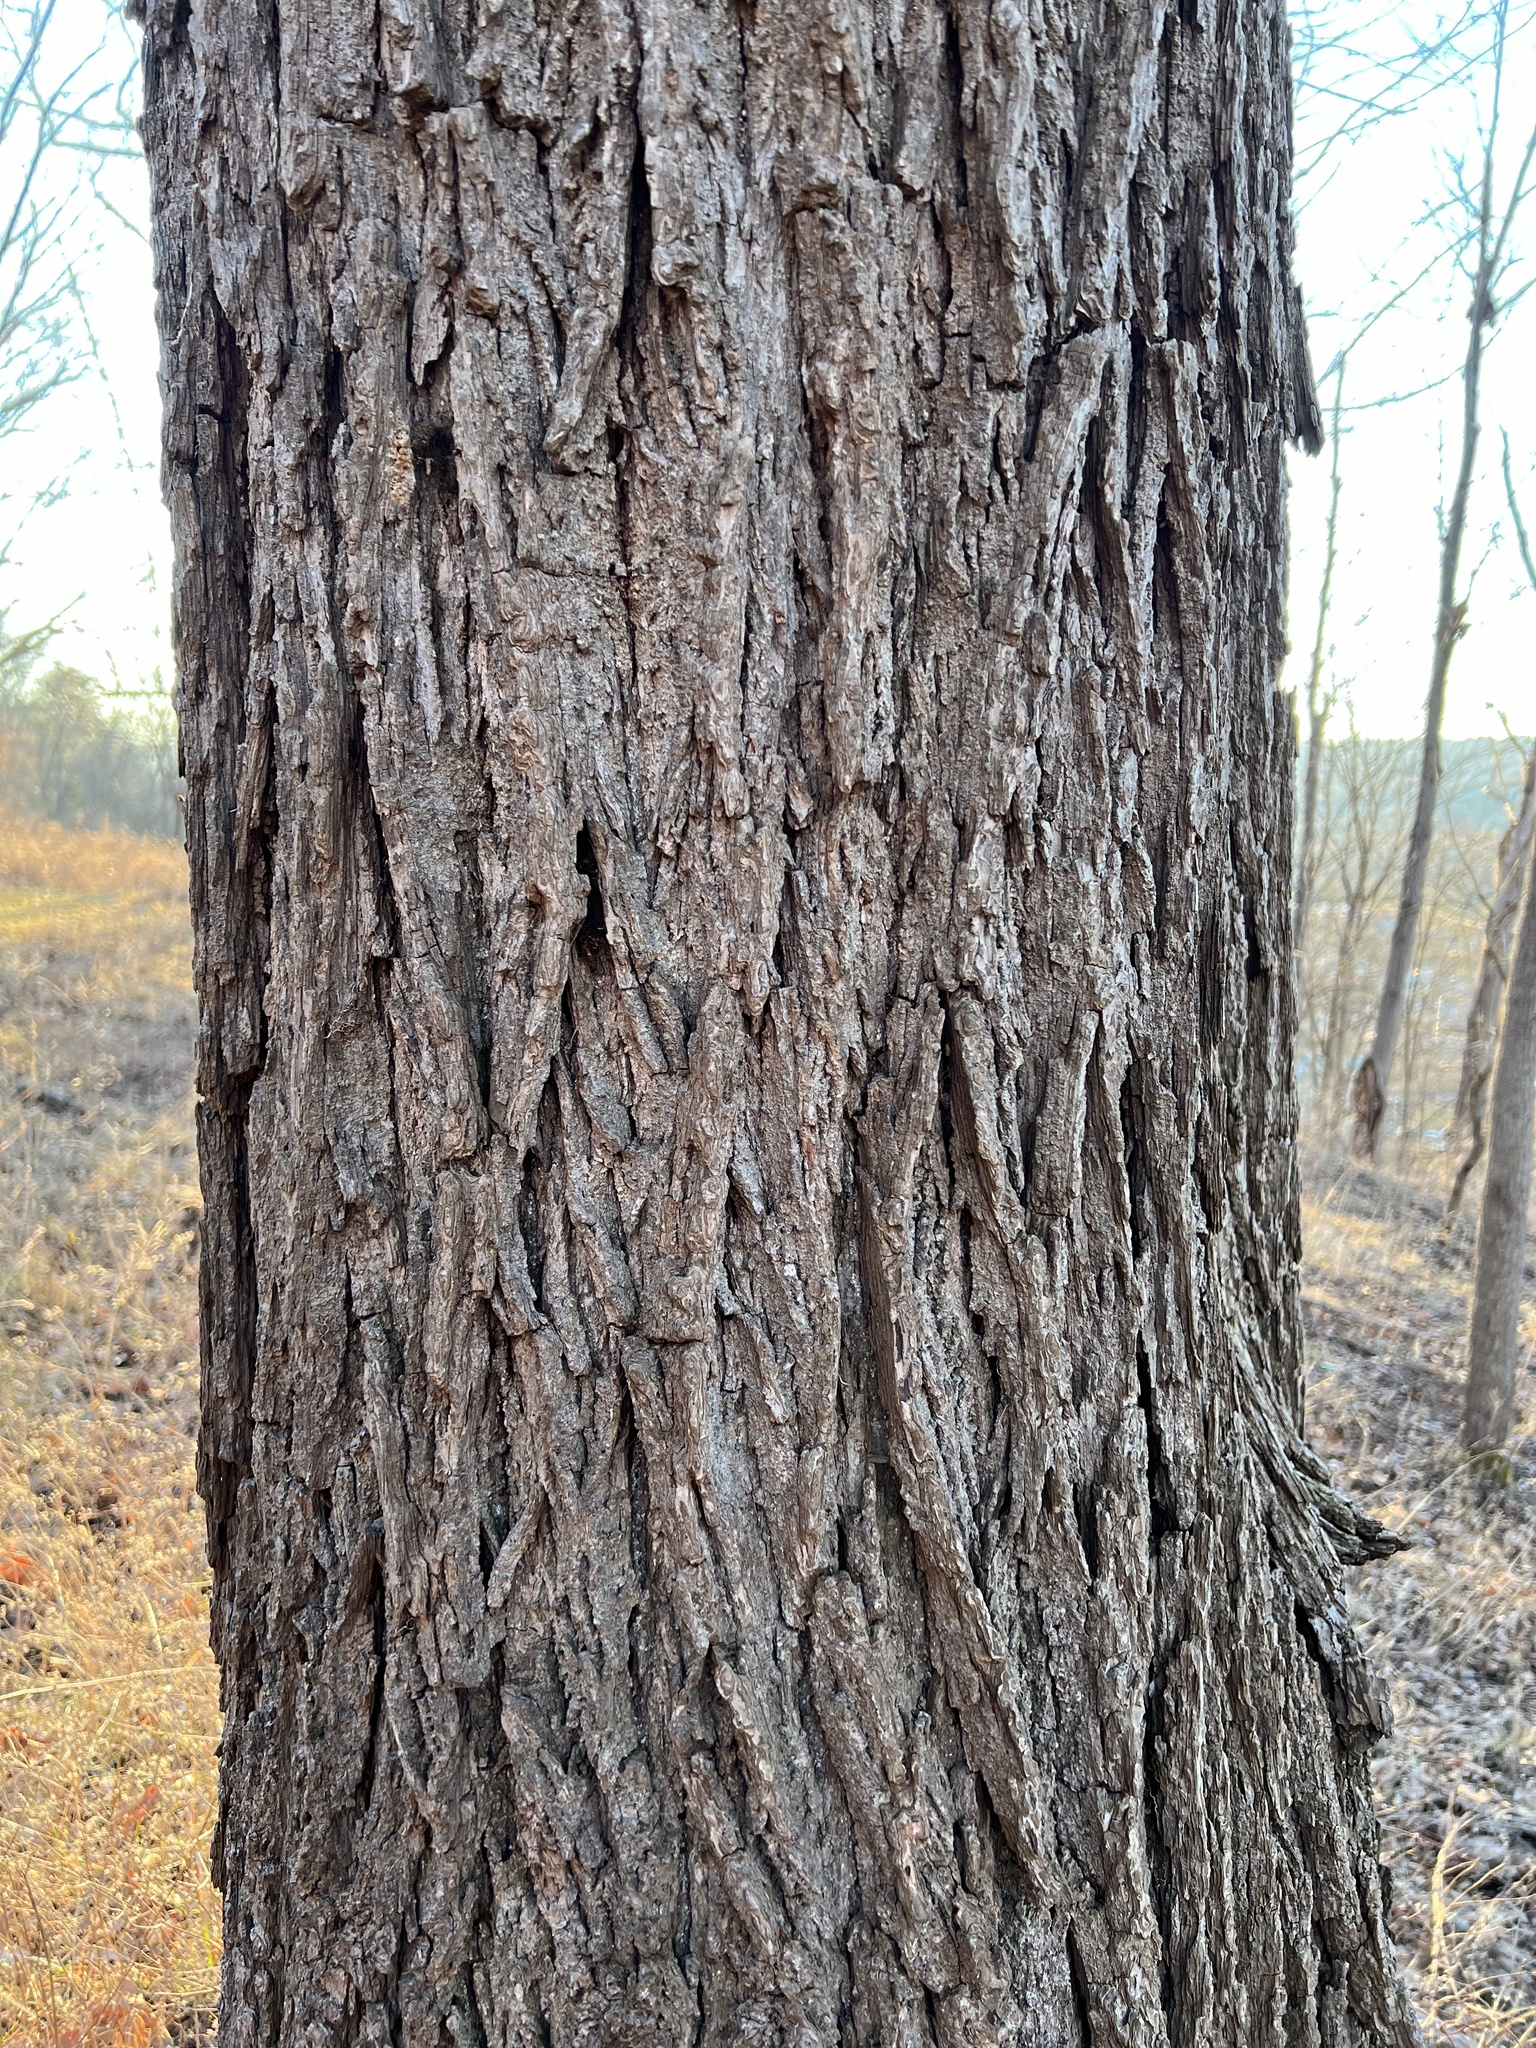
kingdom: Plantae
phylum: Tracheophyta
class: Magnoliopsida
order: Fagales
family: Juglandaceae
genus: Juglans
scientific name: Juglans nigra
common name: Black walnut
